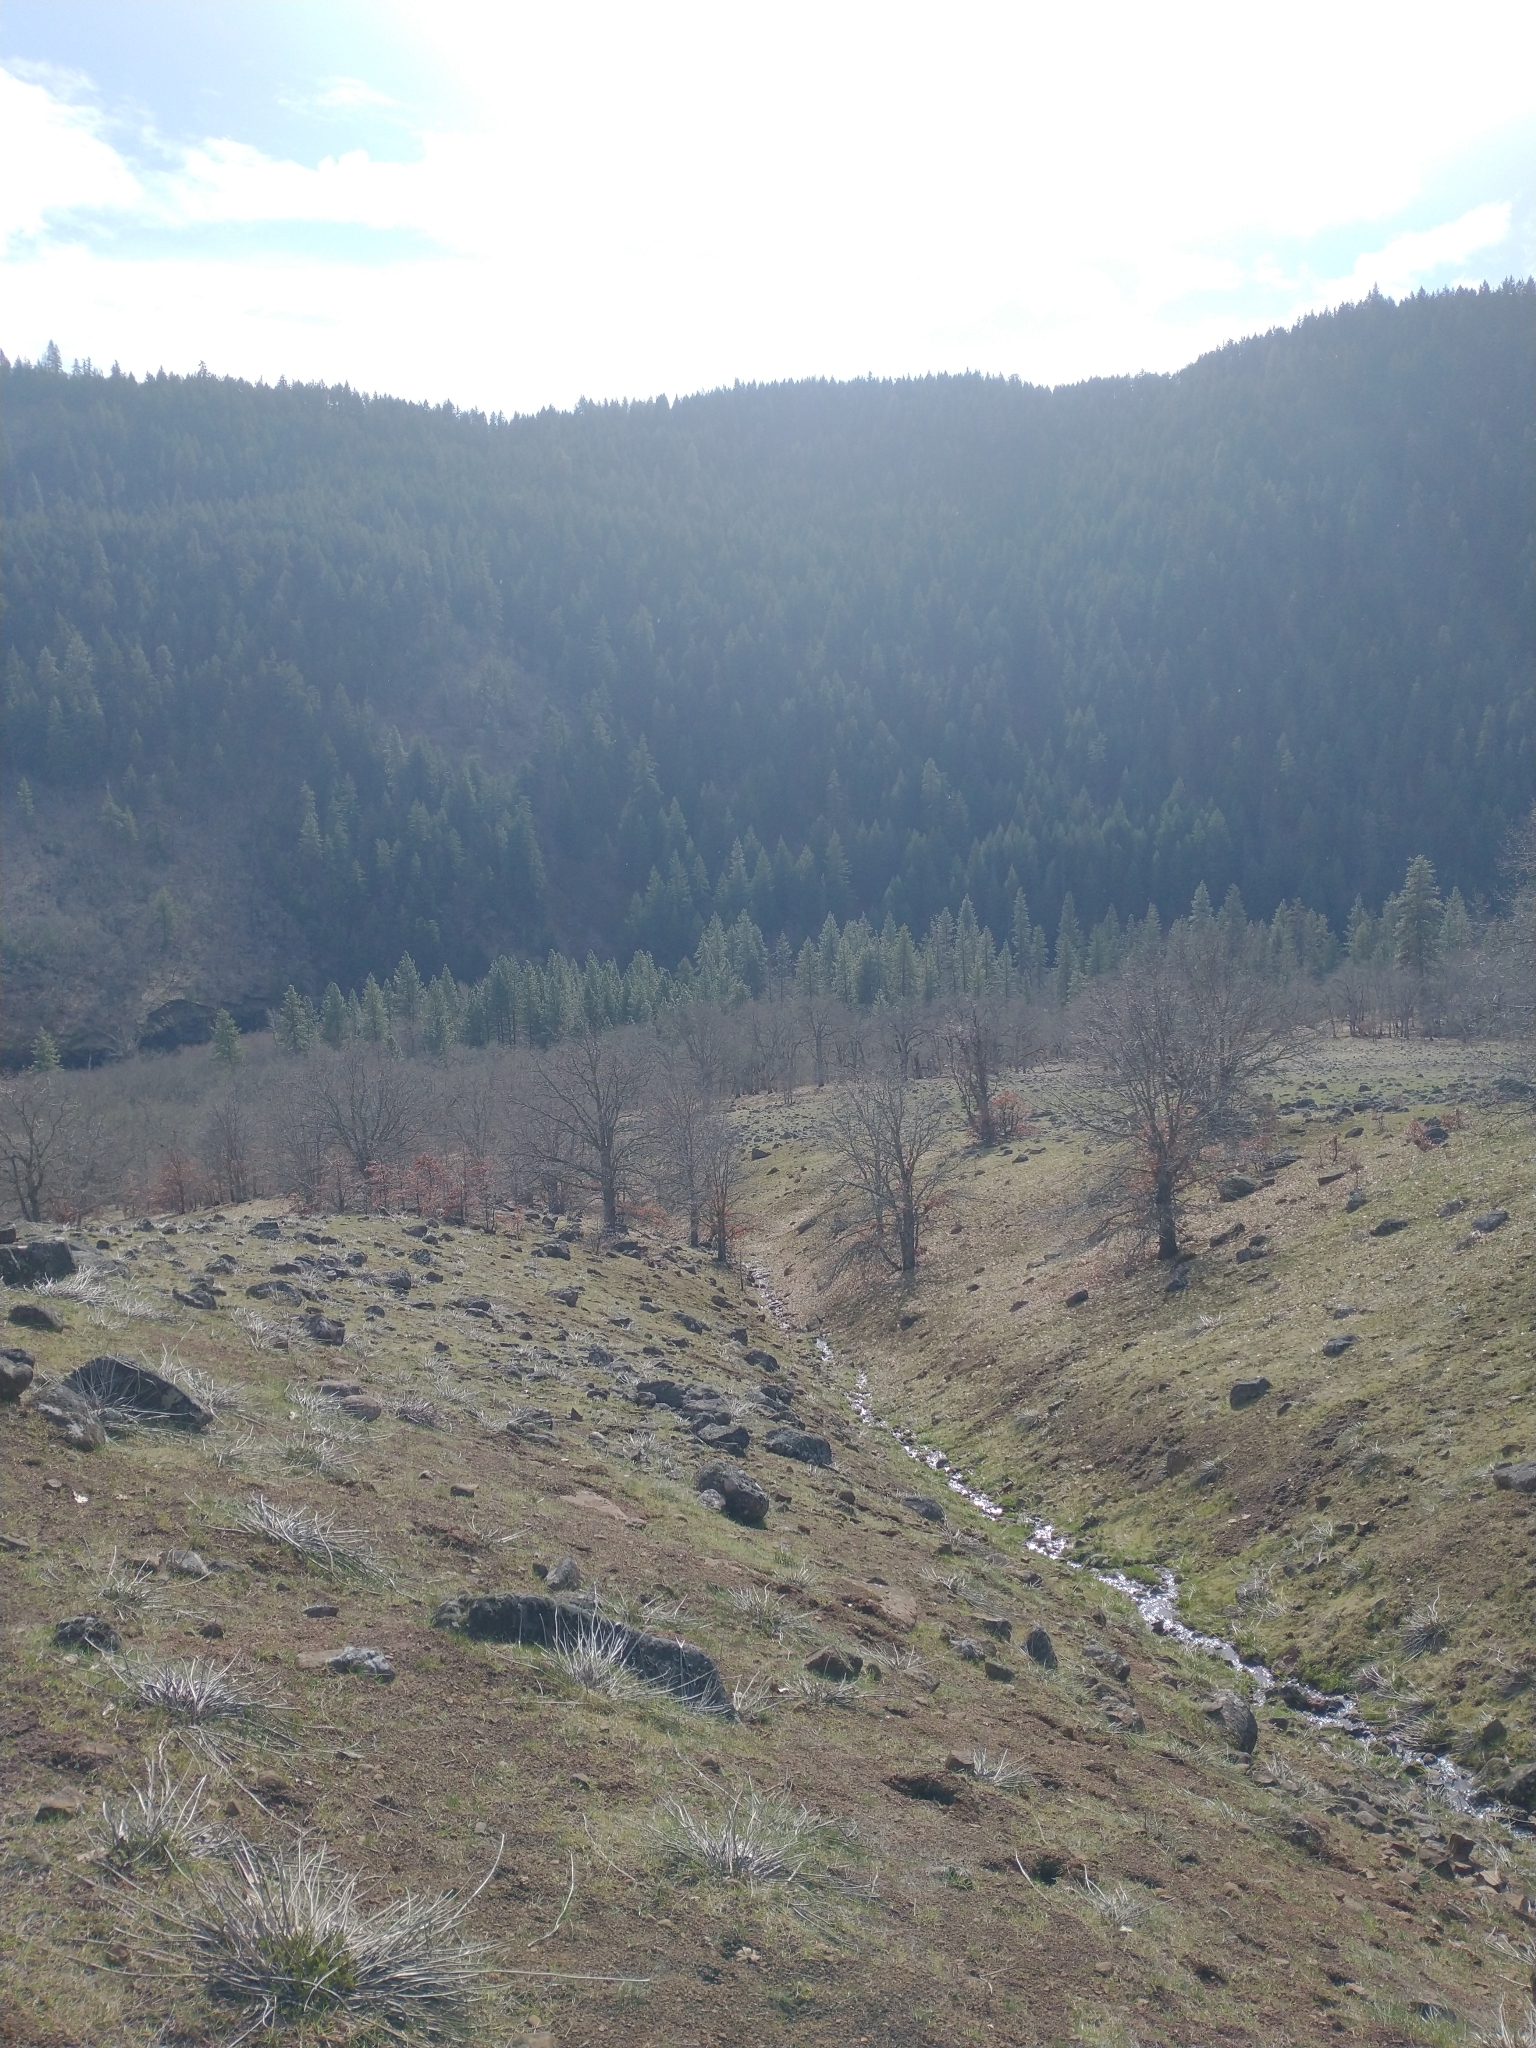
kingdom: Plantae
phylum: Tracheophyta
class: Magnoliopsida
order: Fagales
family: Fagaceae
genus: Quercus
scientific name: Quercus garryana
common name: Garry oak
